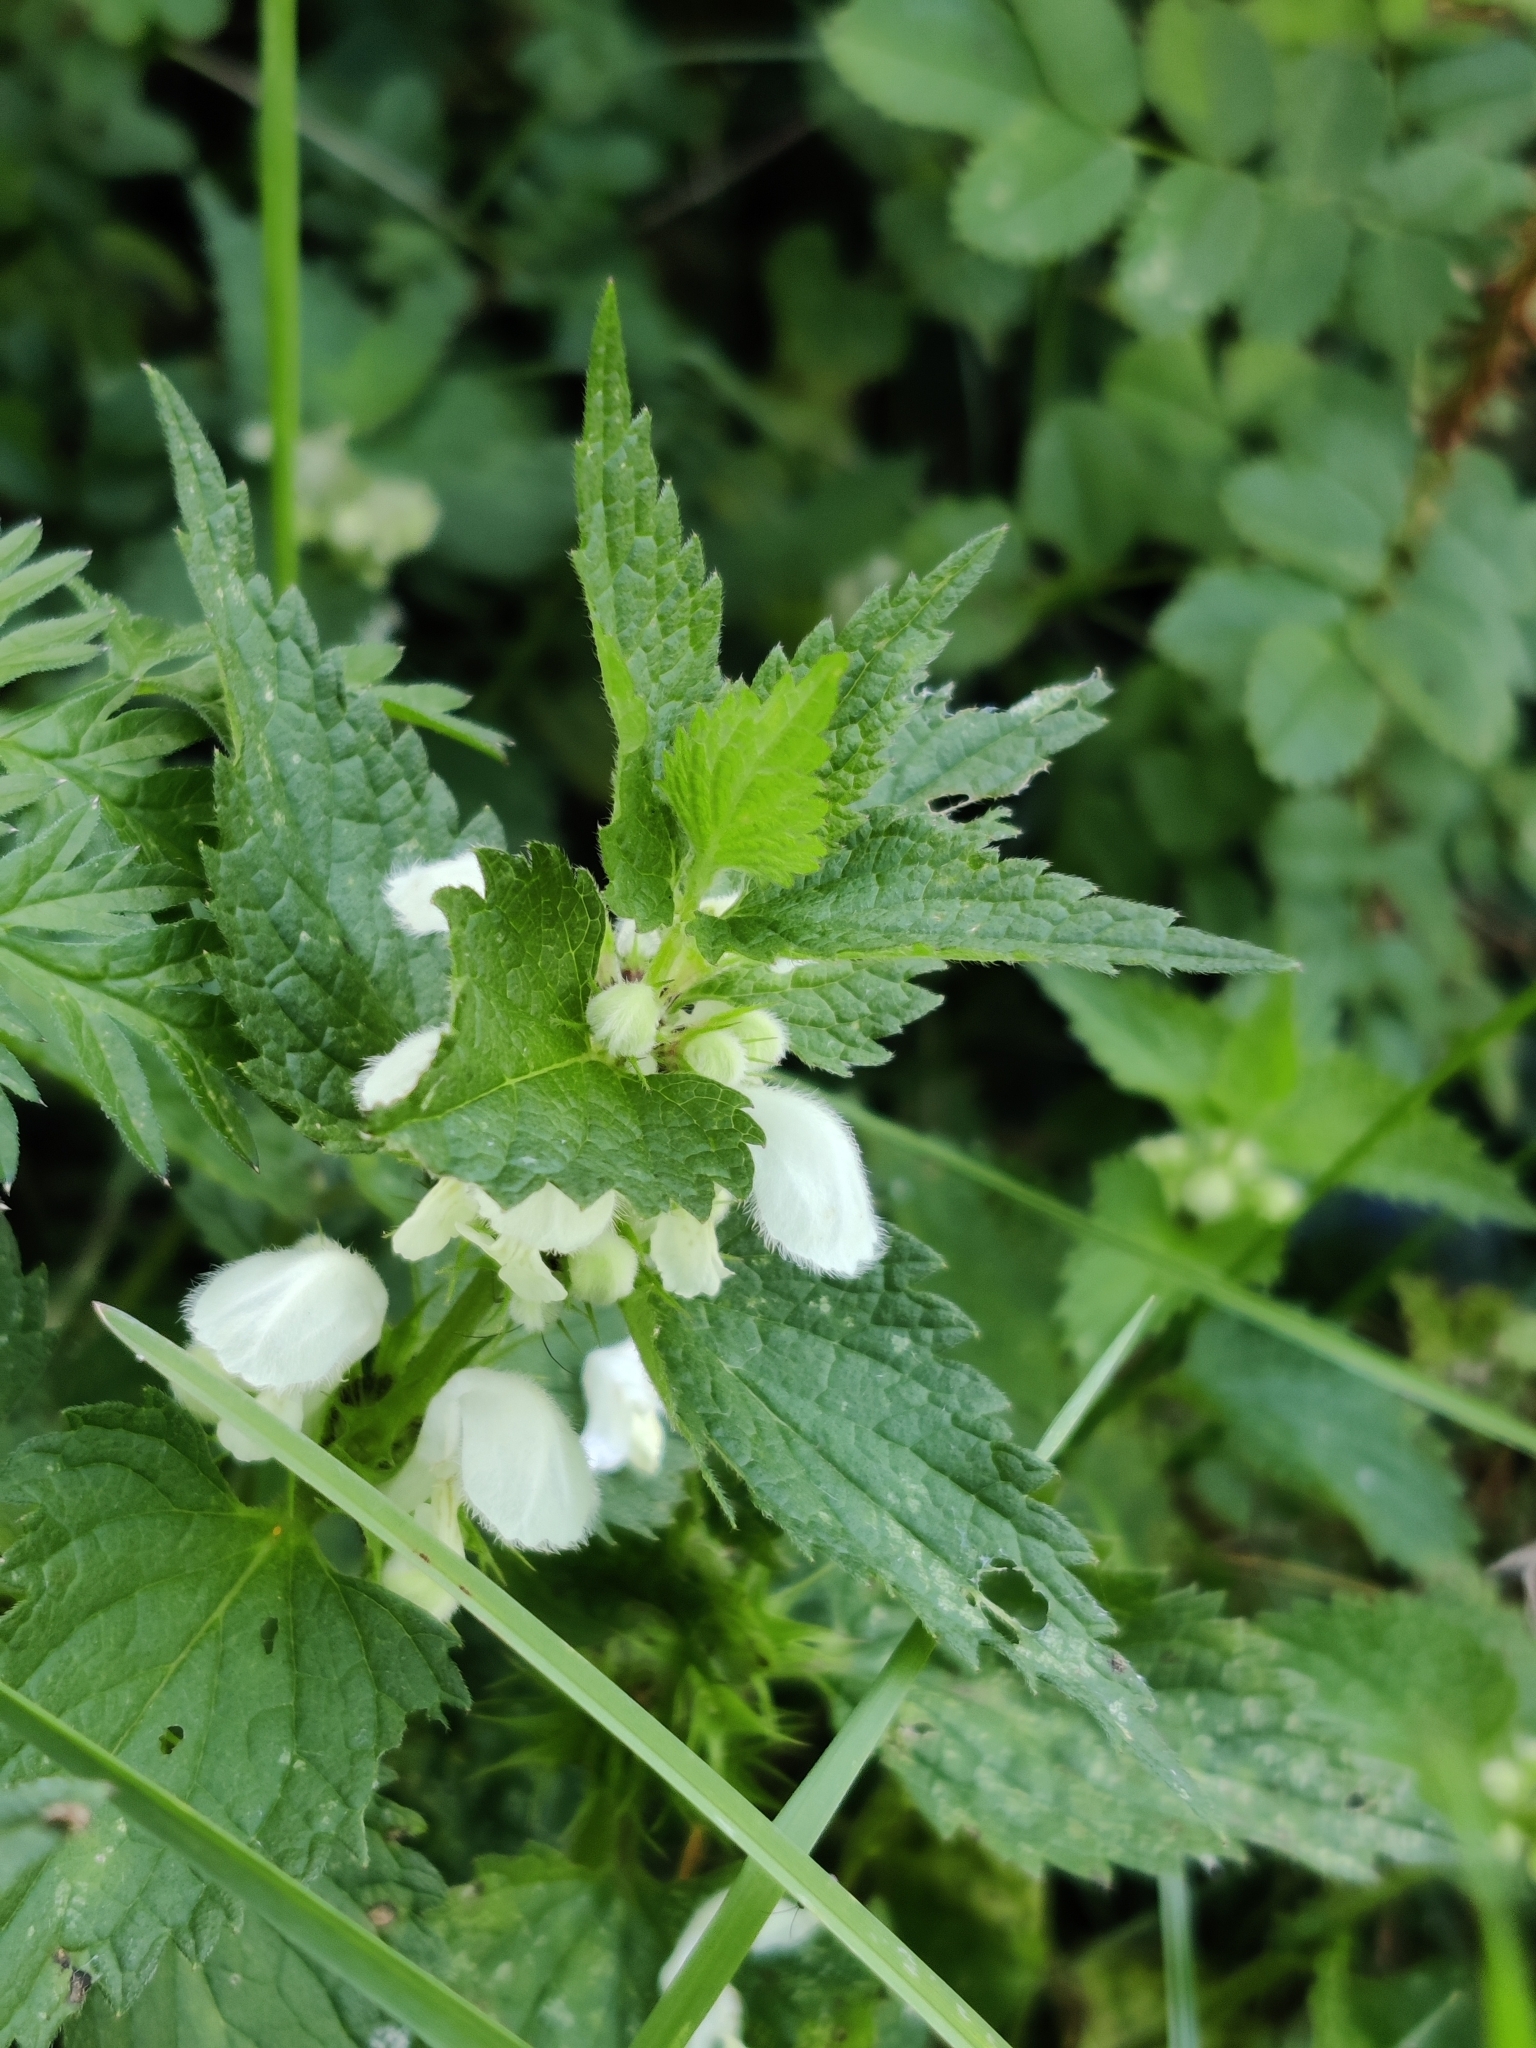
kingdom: Plantae
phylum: Tracheophyta
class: Magnoliopsida
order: Lamiales
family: Lamiaceae
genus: Lamium
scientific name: Lamium album
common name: White dead-nettle
